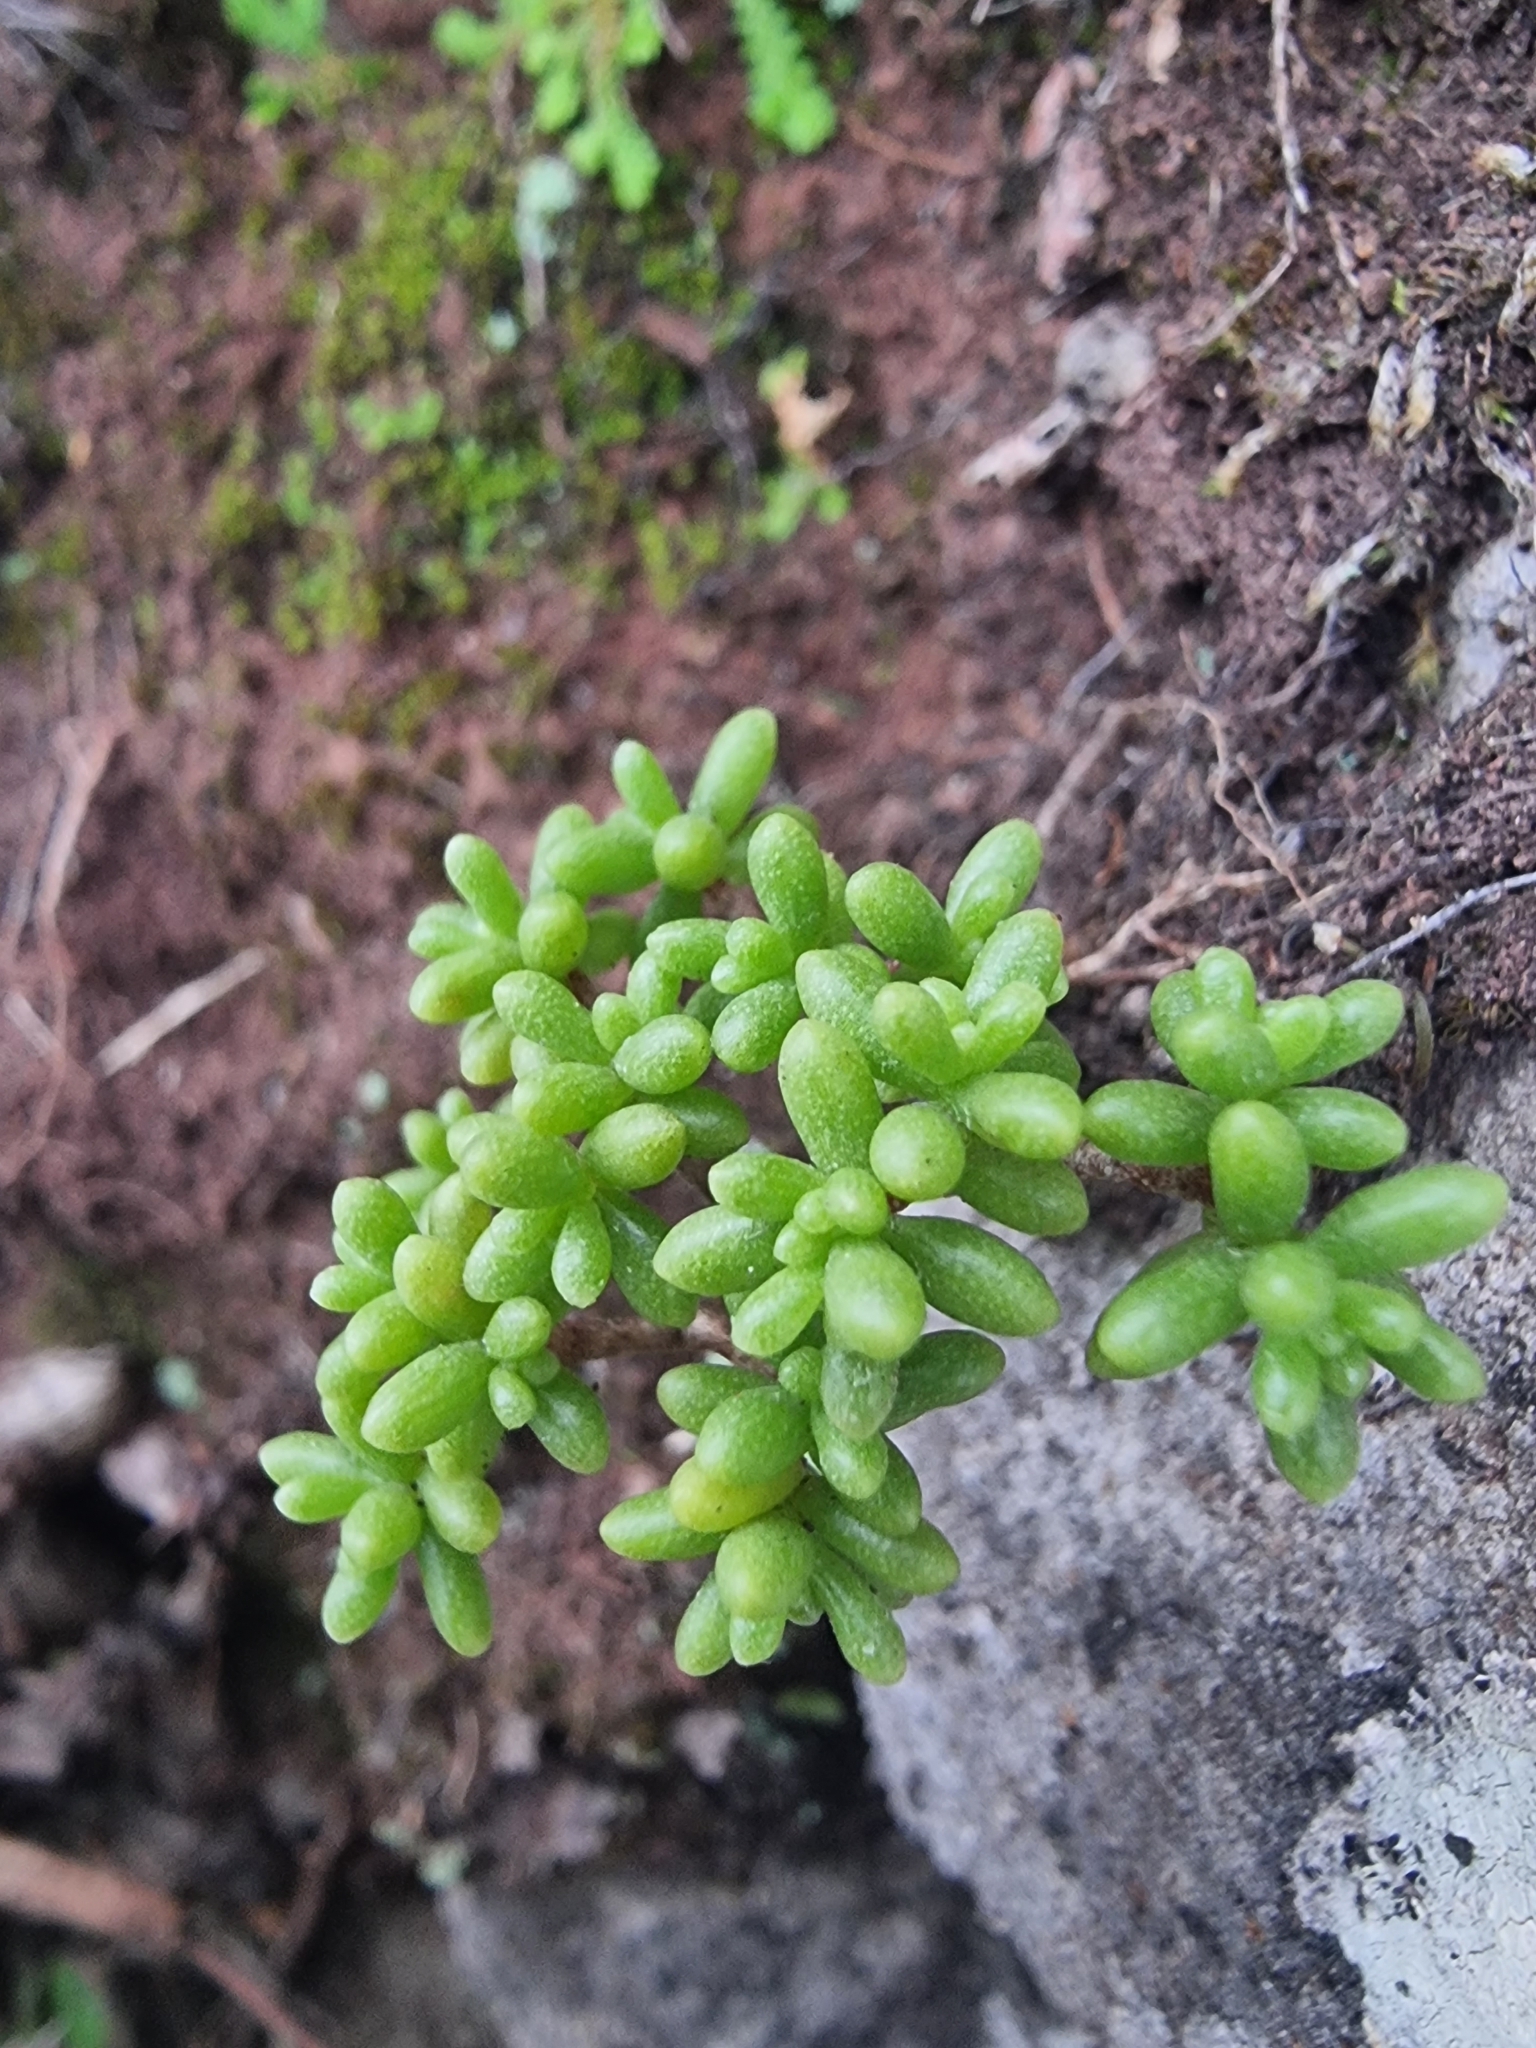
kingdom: Plantae
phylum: Tracheophyta
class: Magnoliopsida
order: Saxifragales
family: Crassulaceae
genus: Sedum
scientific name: Sedum brissemoretii
